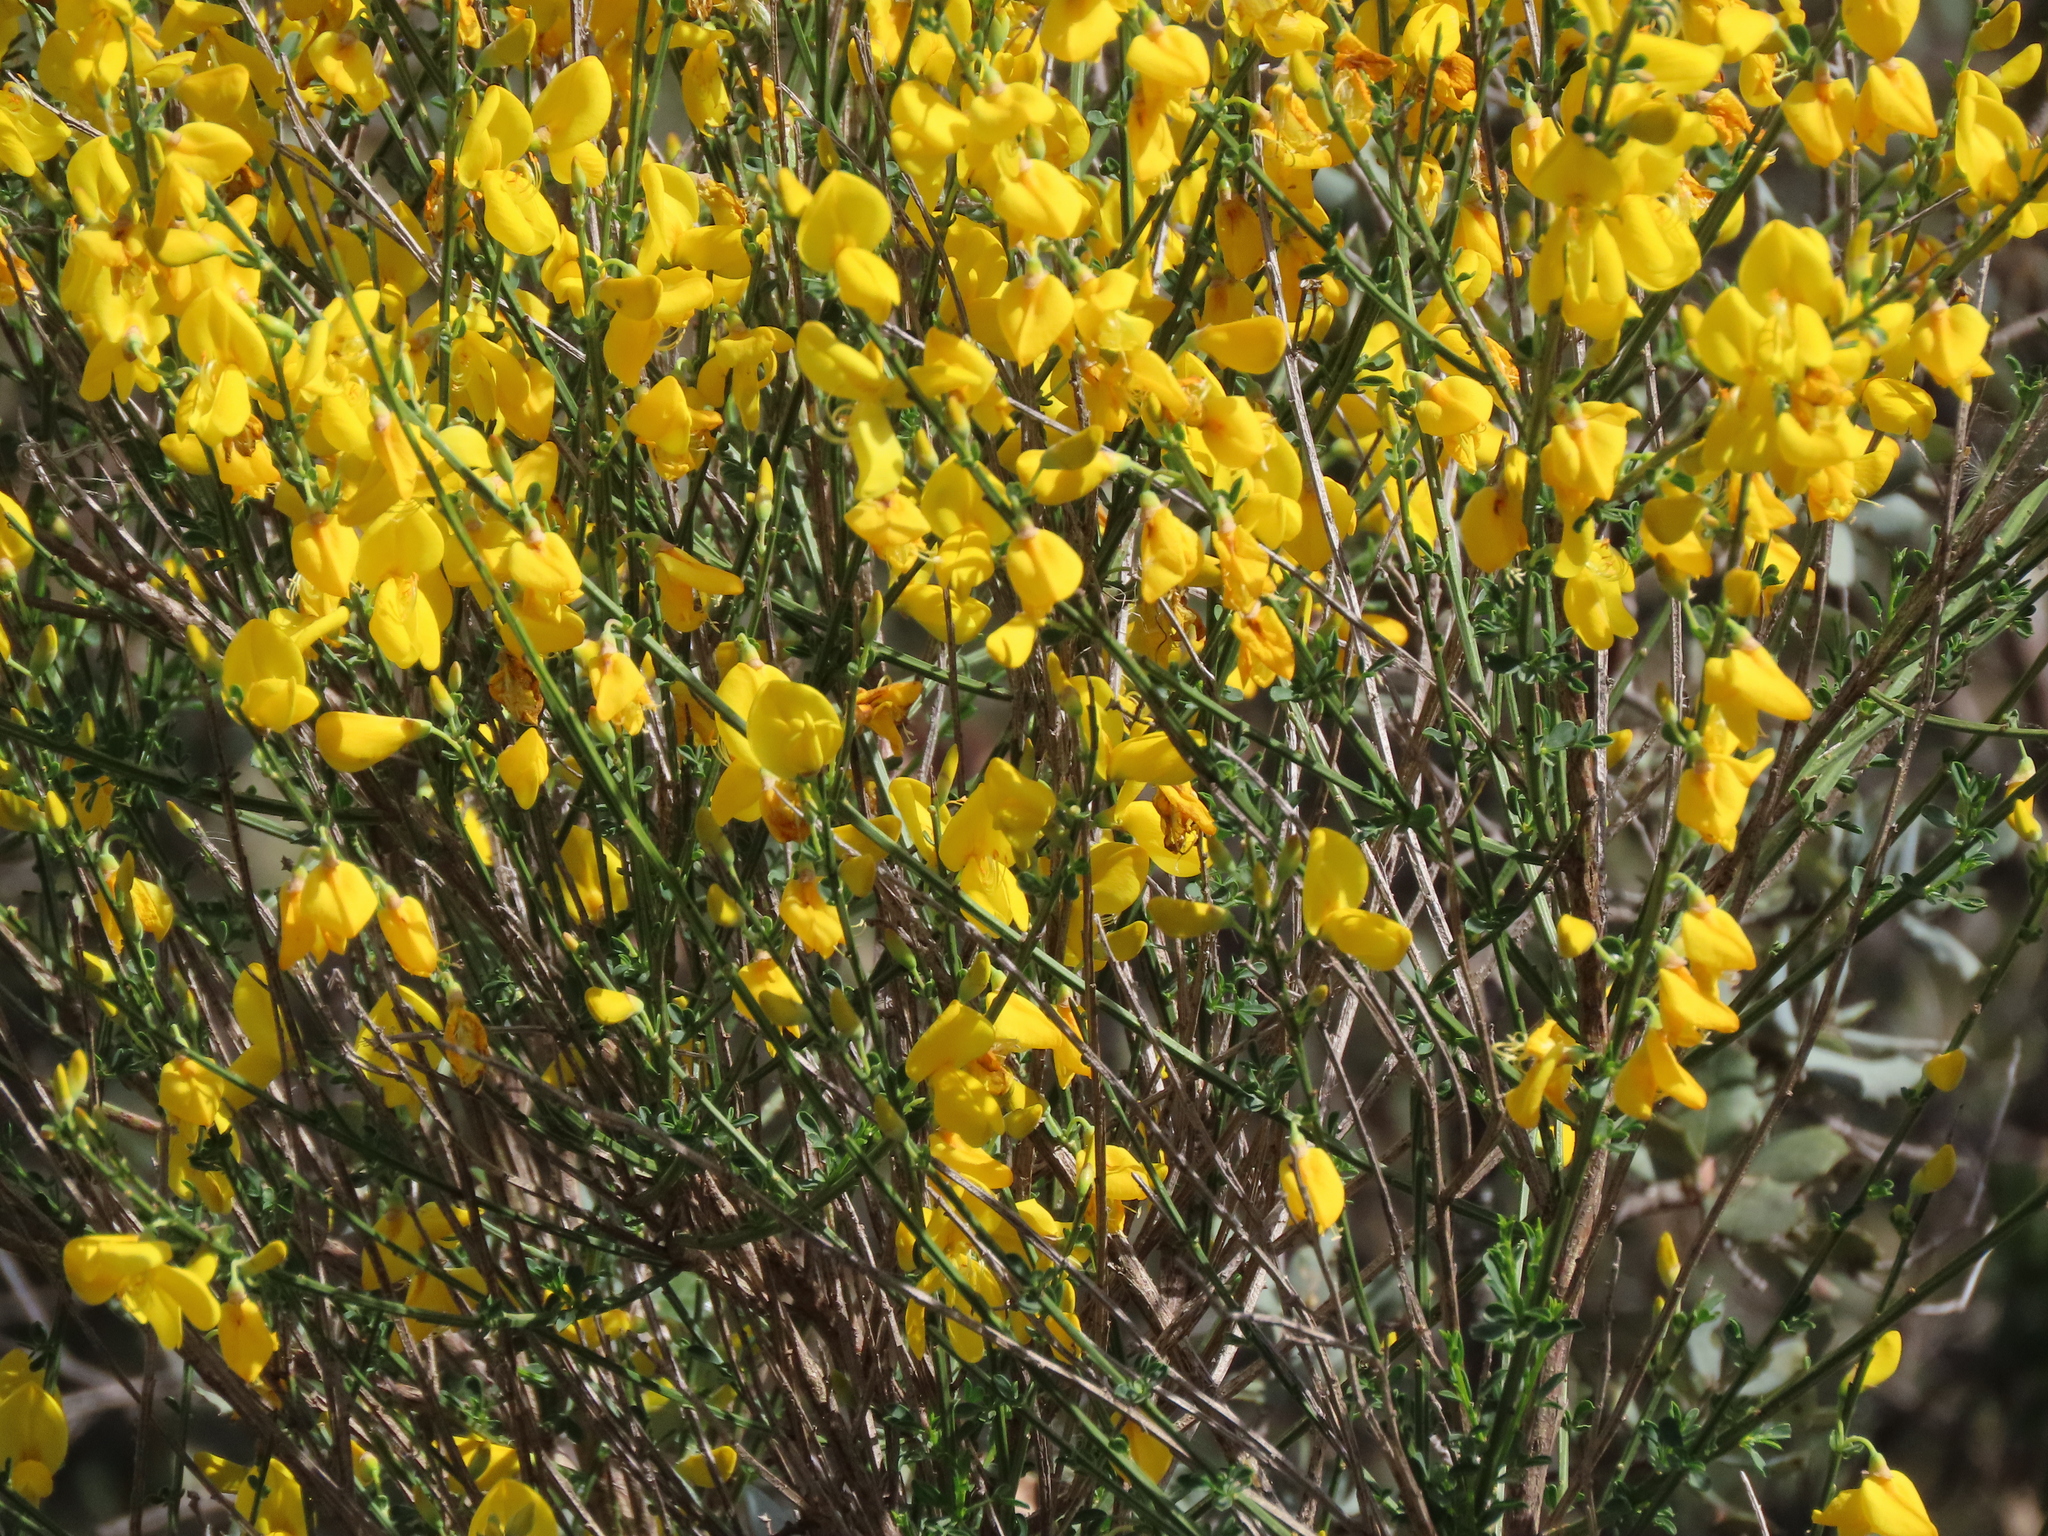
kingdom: Plantae
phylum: Tracheophyta
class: Magnoliopsida
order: Fabales
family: Fabaceae
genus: Cytisus
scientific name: Cytisus scoparius
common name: Scotch broom
